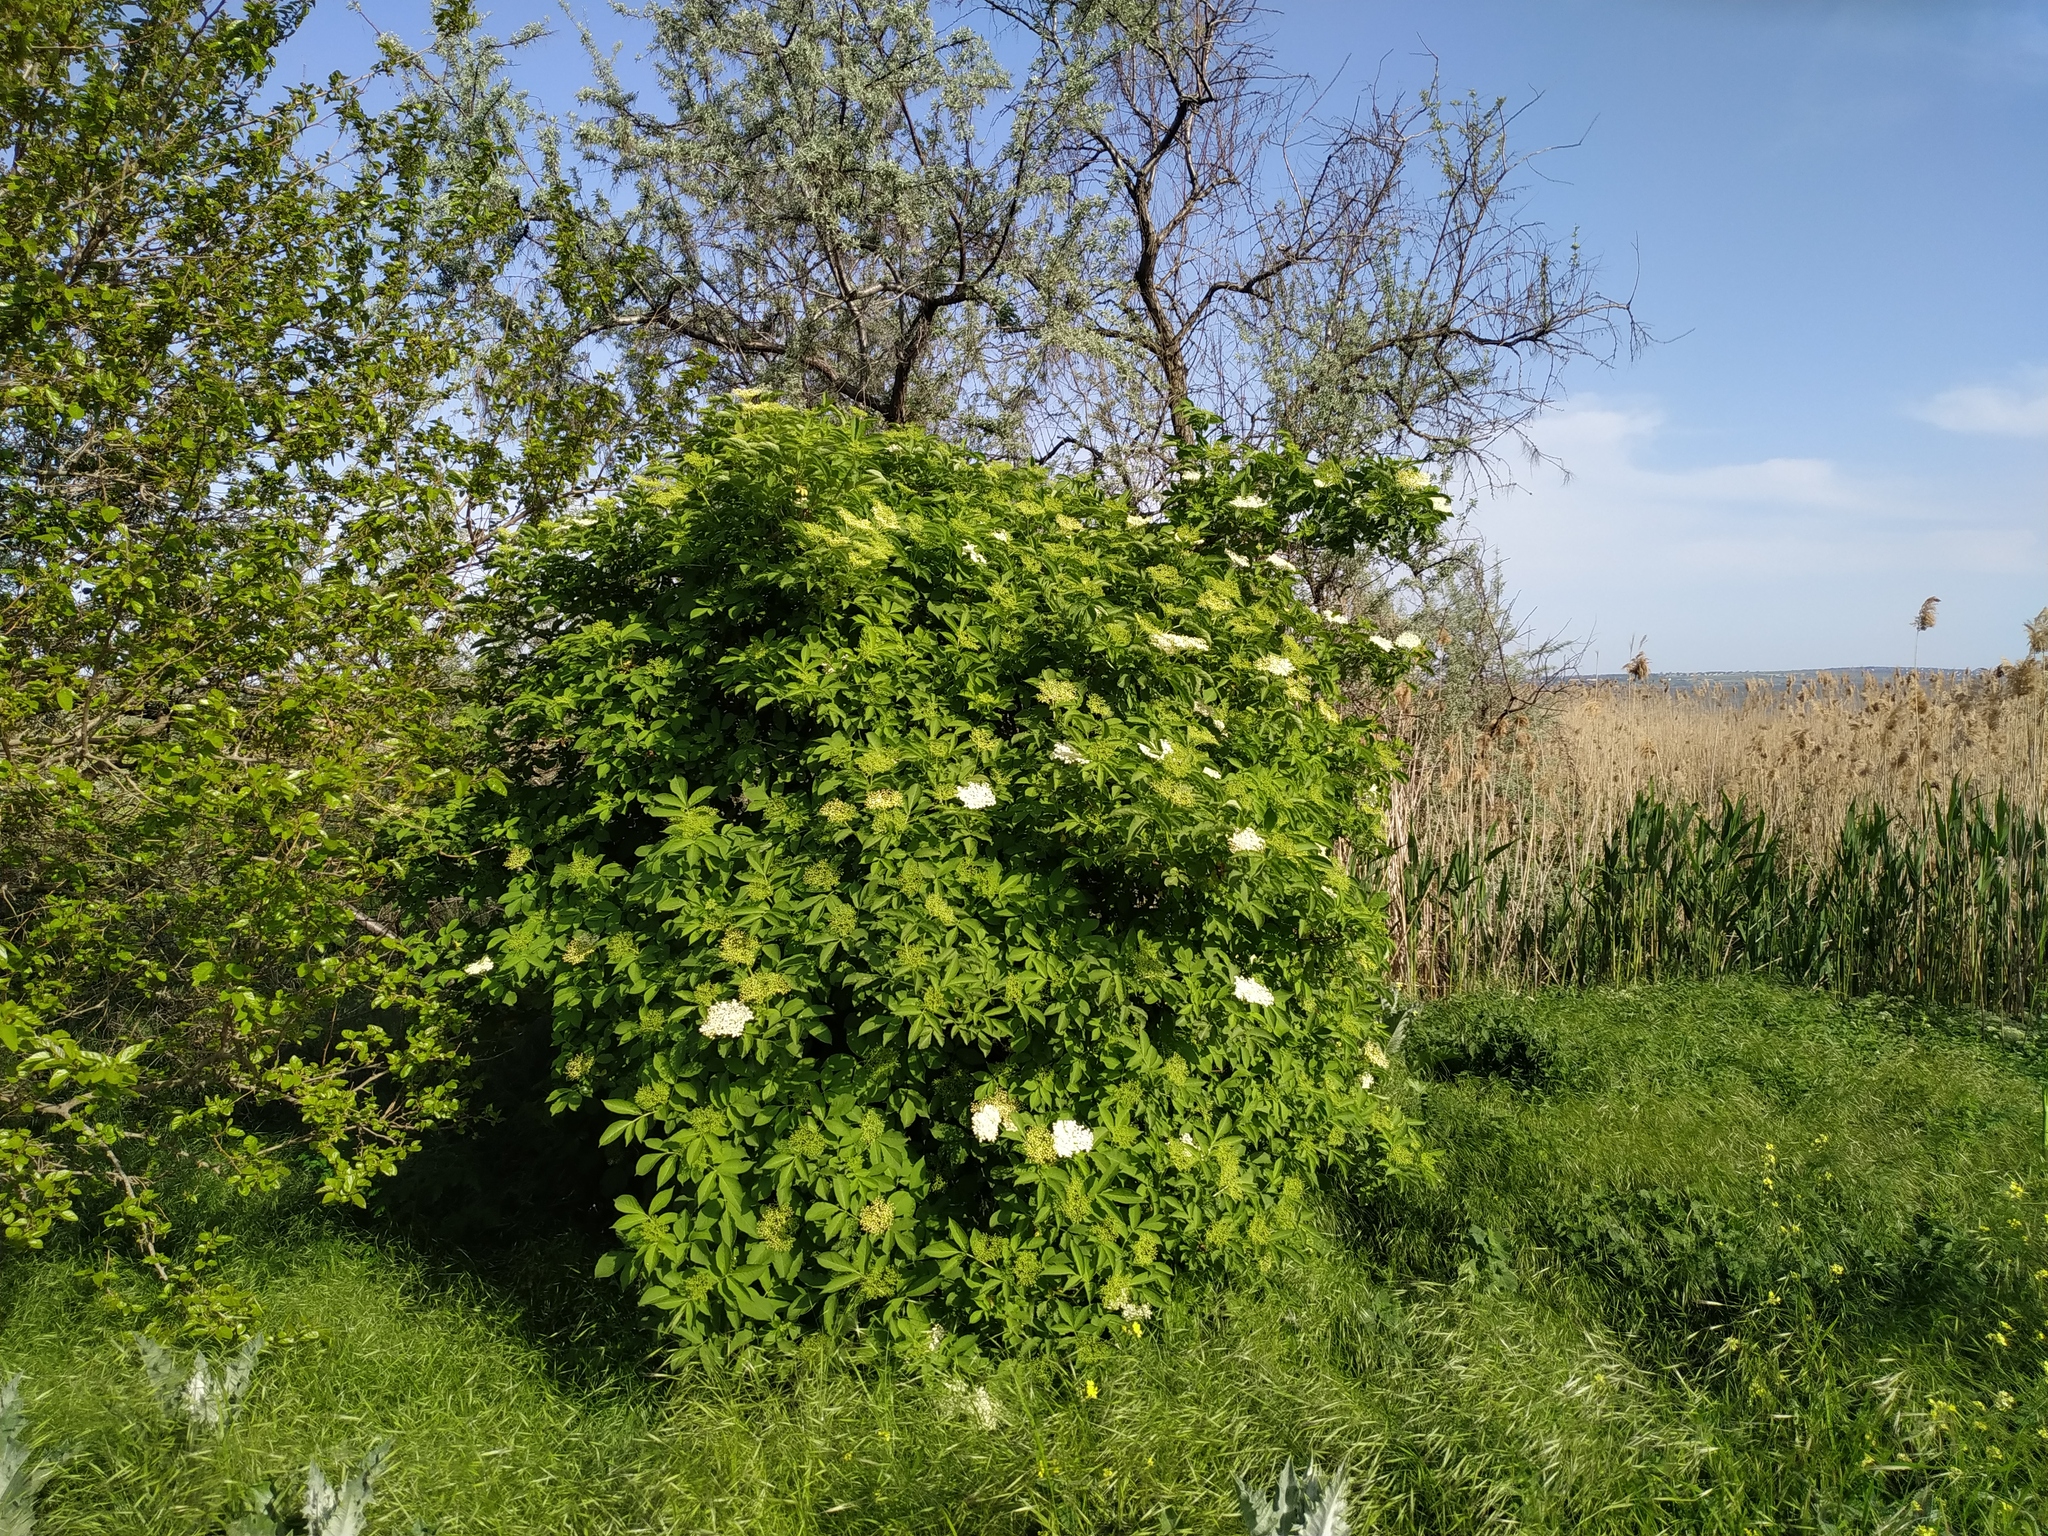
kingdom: Plantae
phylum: Tracheophyta
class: Magnoliopsida
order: Dipsacales
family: Viburnaceae
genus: Sambucus
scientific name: Sambucus nigra
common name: Elder
